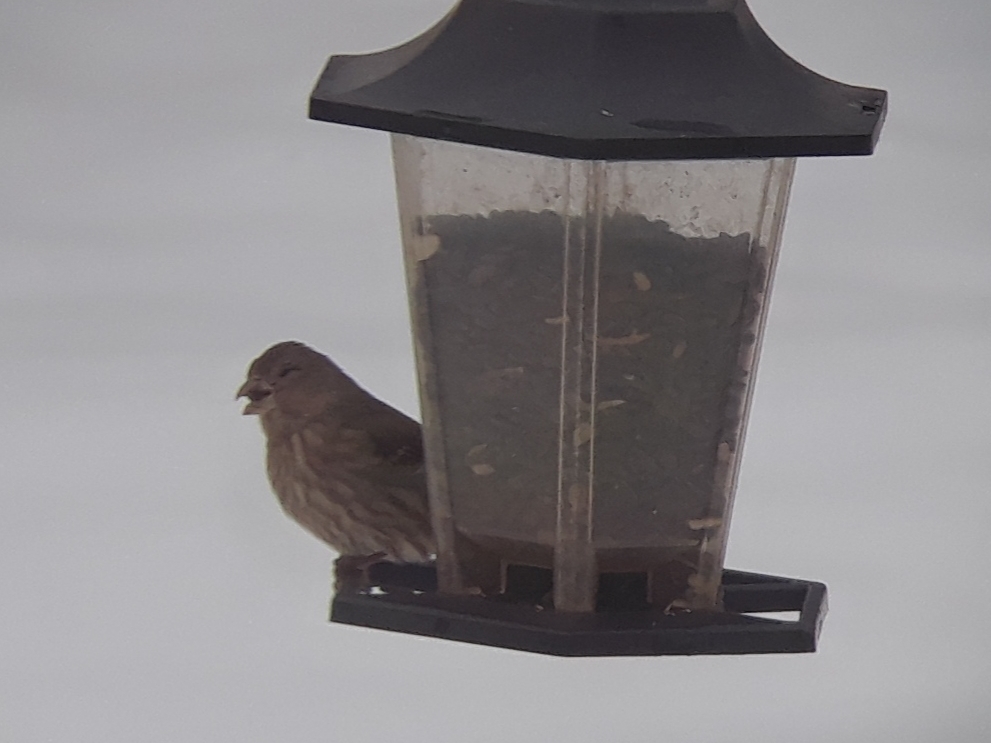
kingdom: Animalia
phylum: Chordata
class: Aves
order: Passeriformes
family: Fringillidae
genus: Haemorhous
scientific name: Haemorhous mexicanus
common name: House finch
